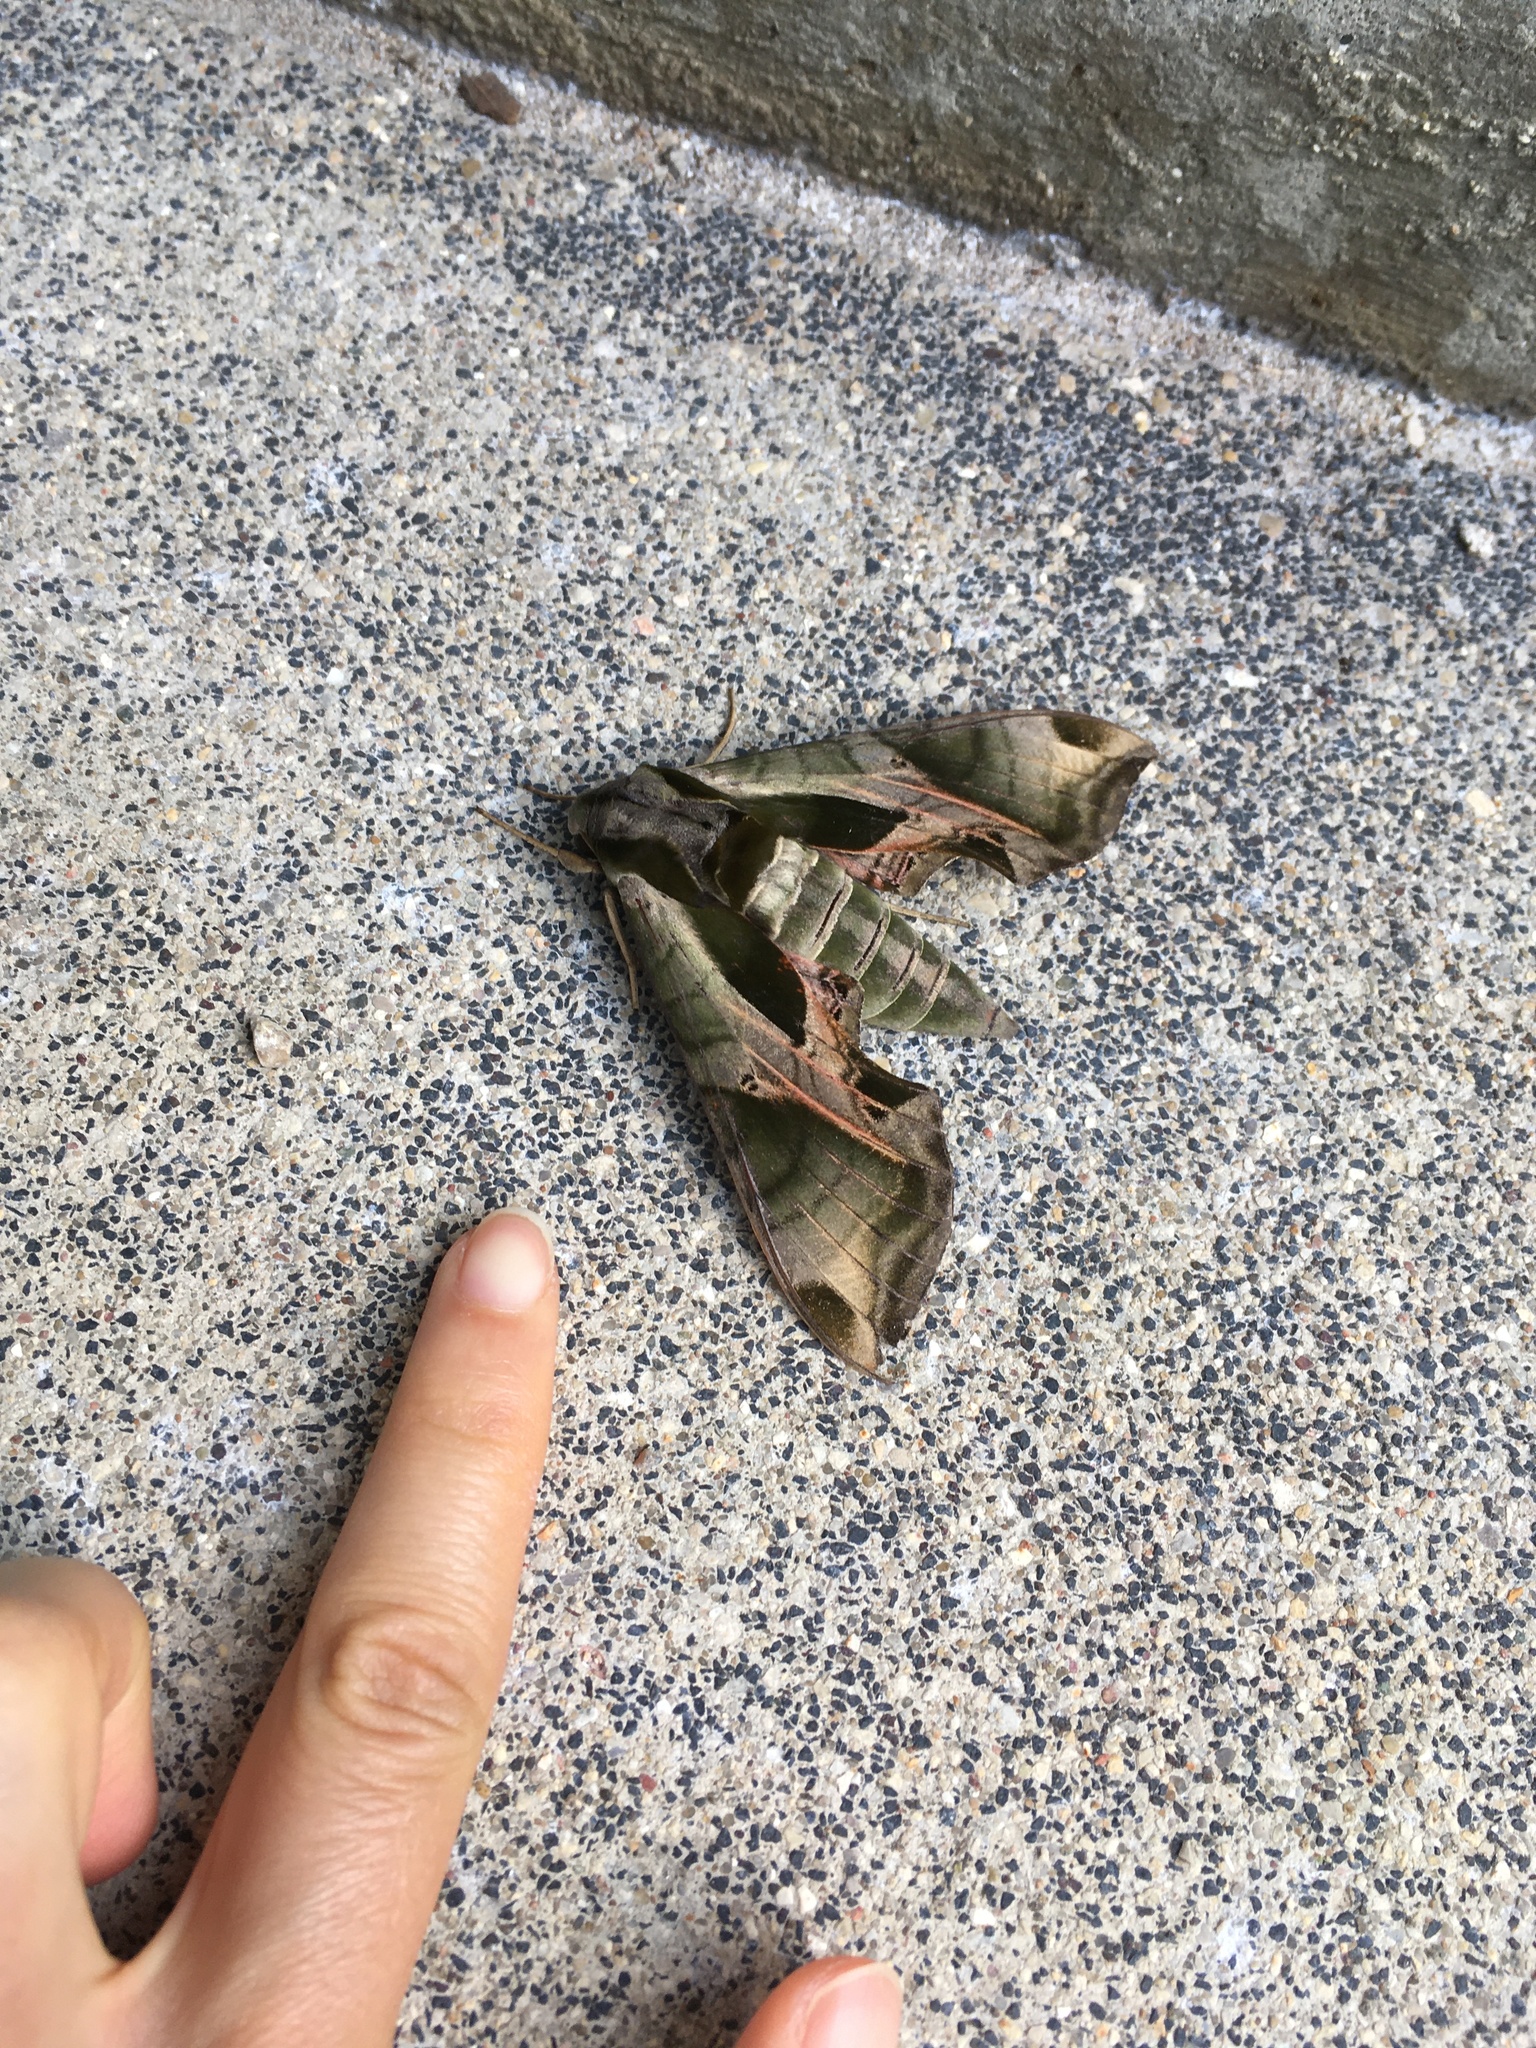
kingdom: Animalia
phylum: Arthropoda
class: Insecta
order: Lepidoptera
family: Sphingidae
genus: Eumorpha
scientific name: Eumorpha pandorus
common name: Pandora sphinx
